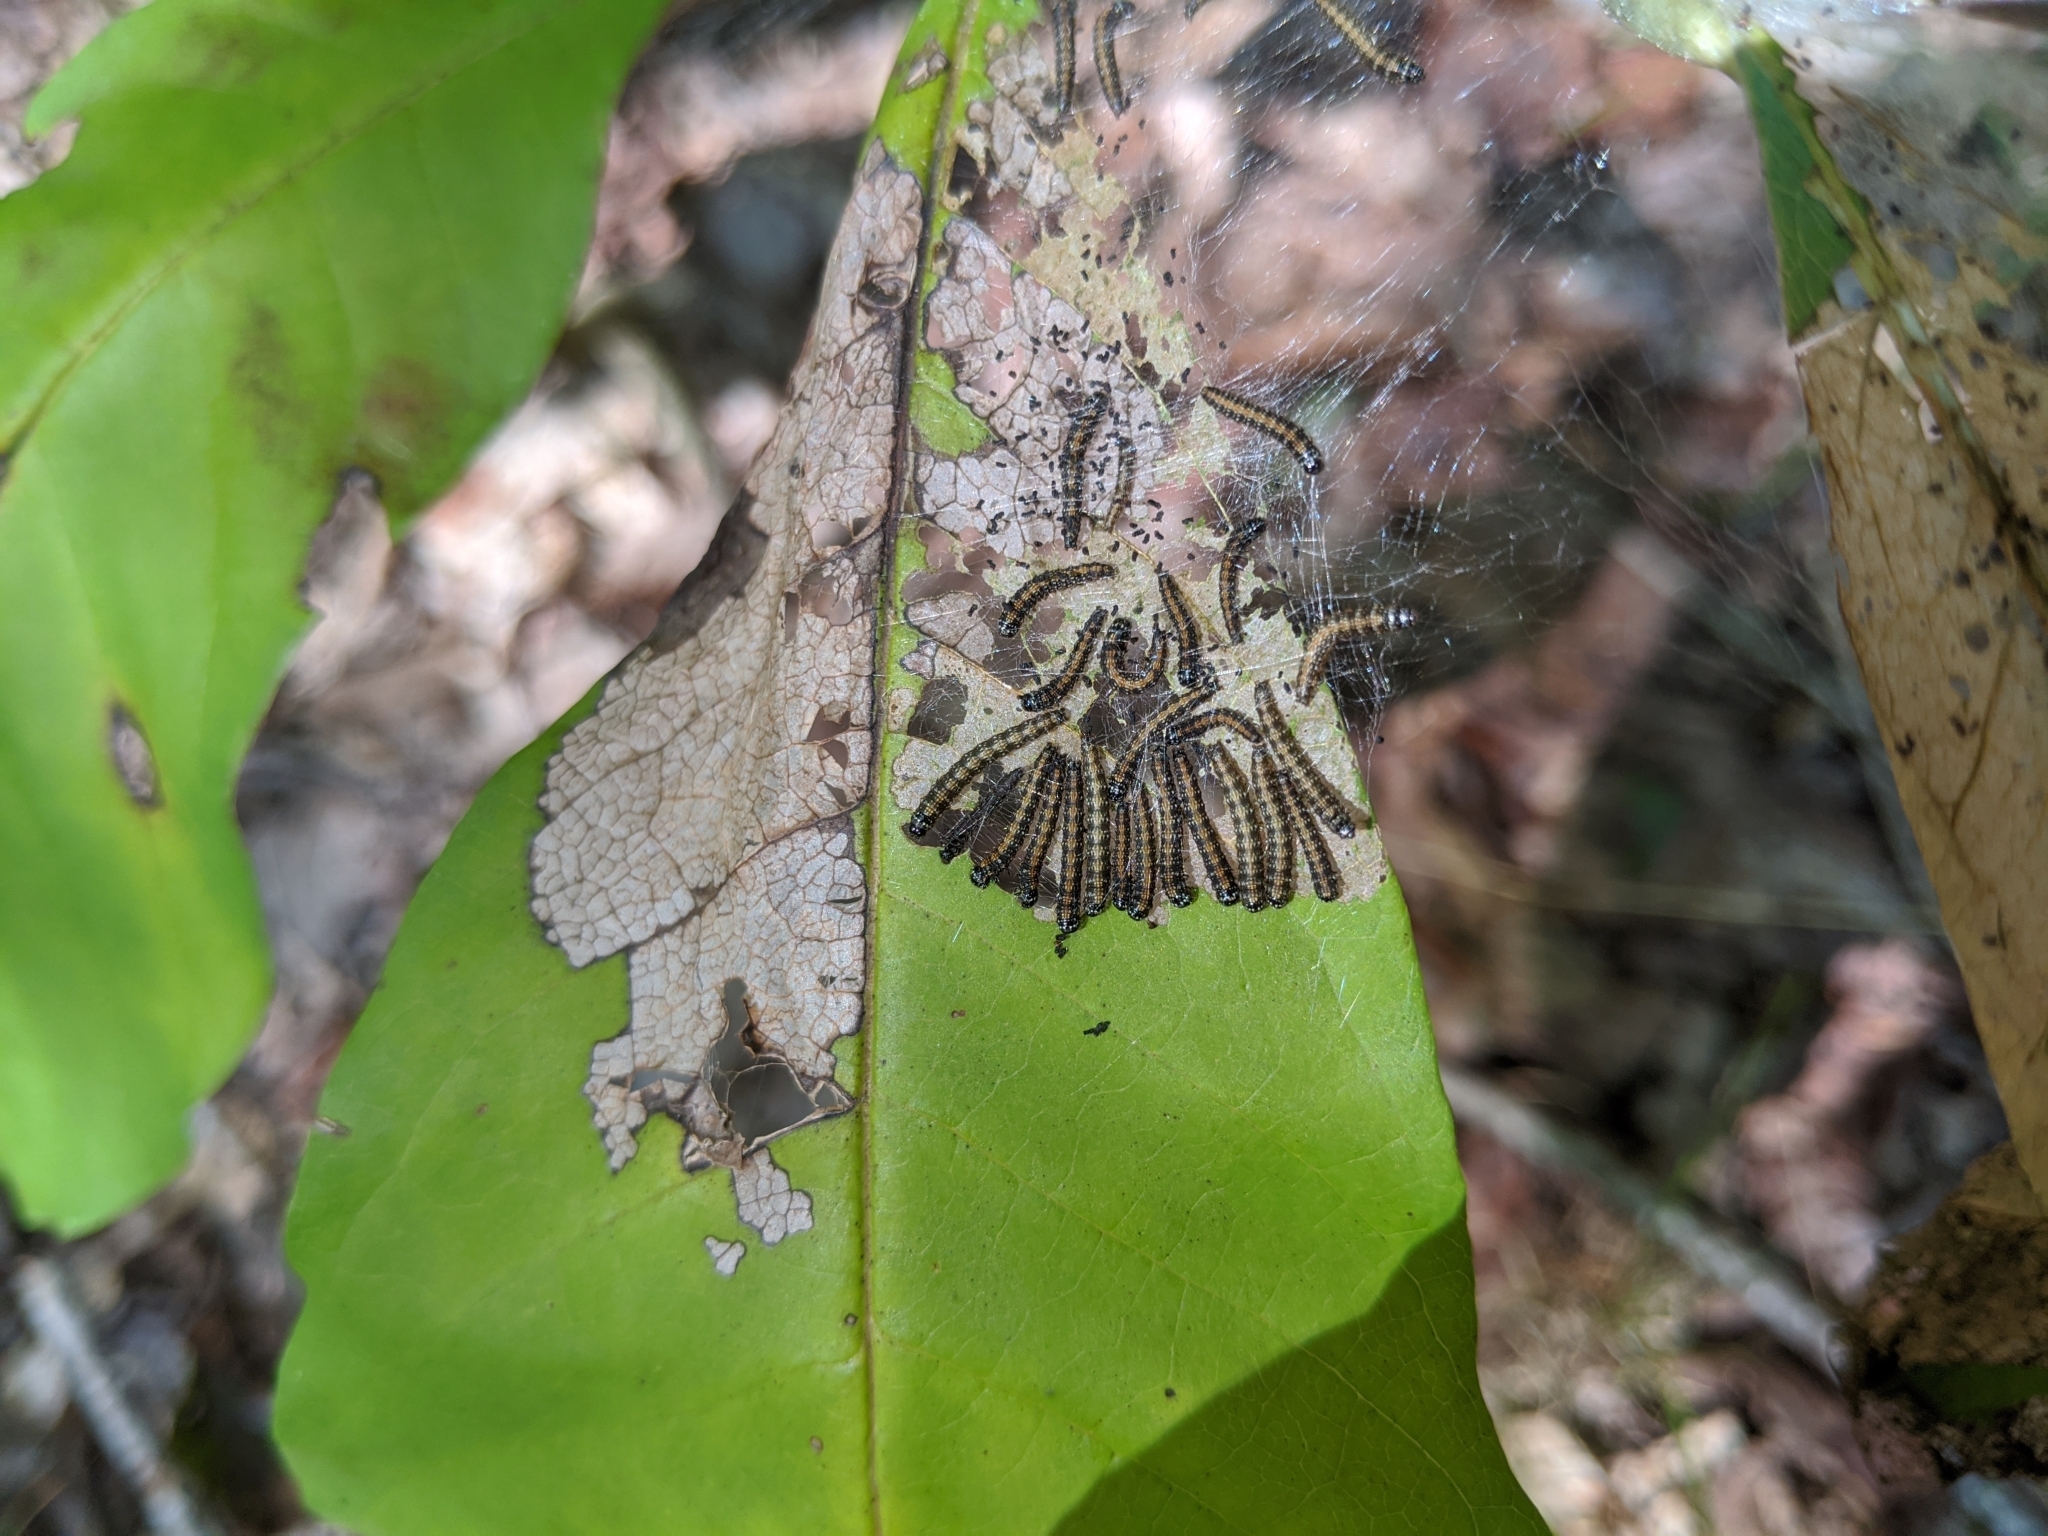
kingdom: Animalia
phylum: Arthropoda
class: Insecta
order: Lepidoptera
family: Pyralidae
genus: Omphalocera
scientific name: Omphalocera munroei
